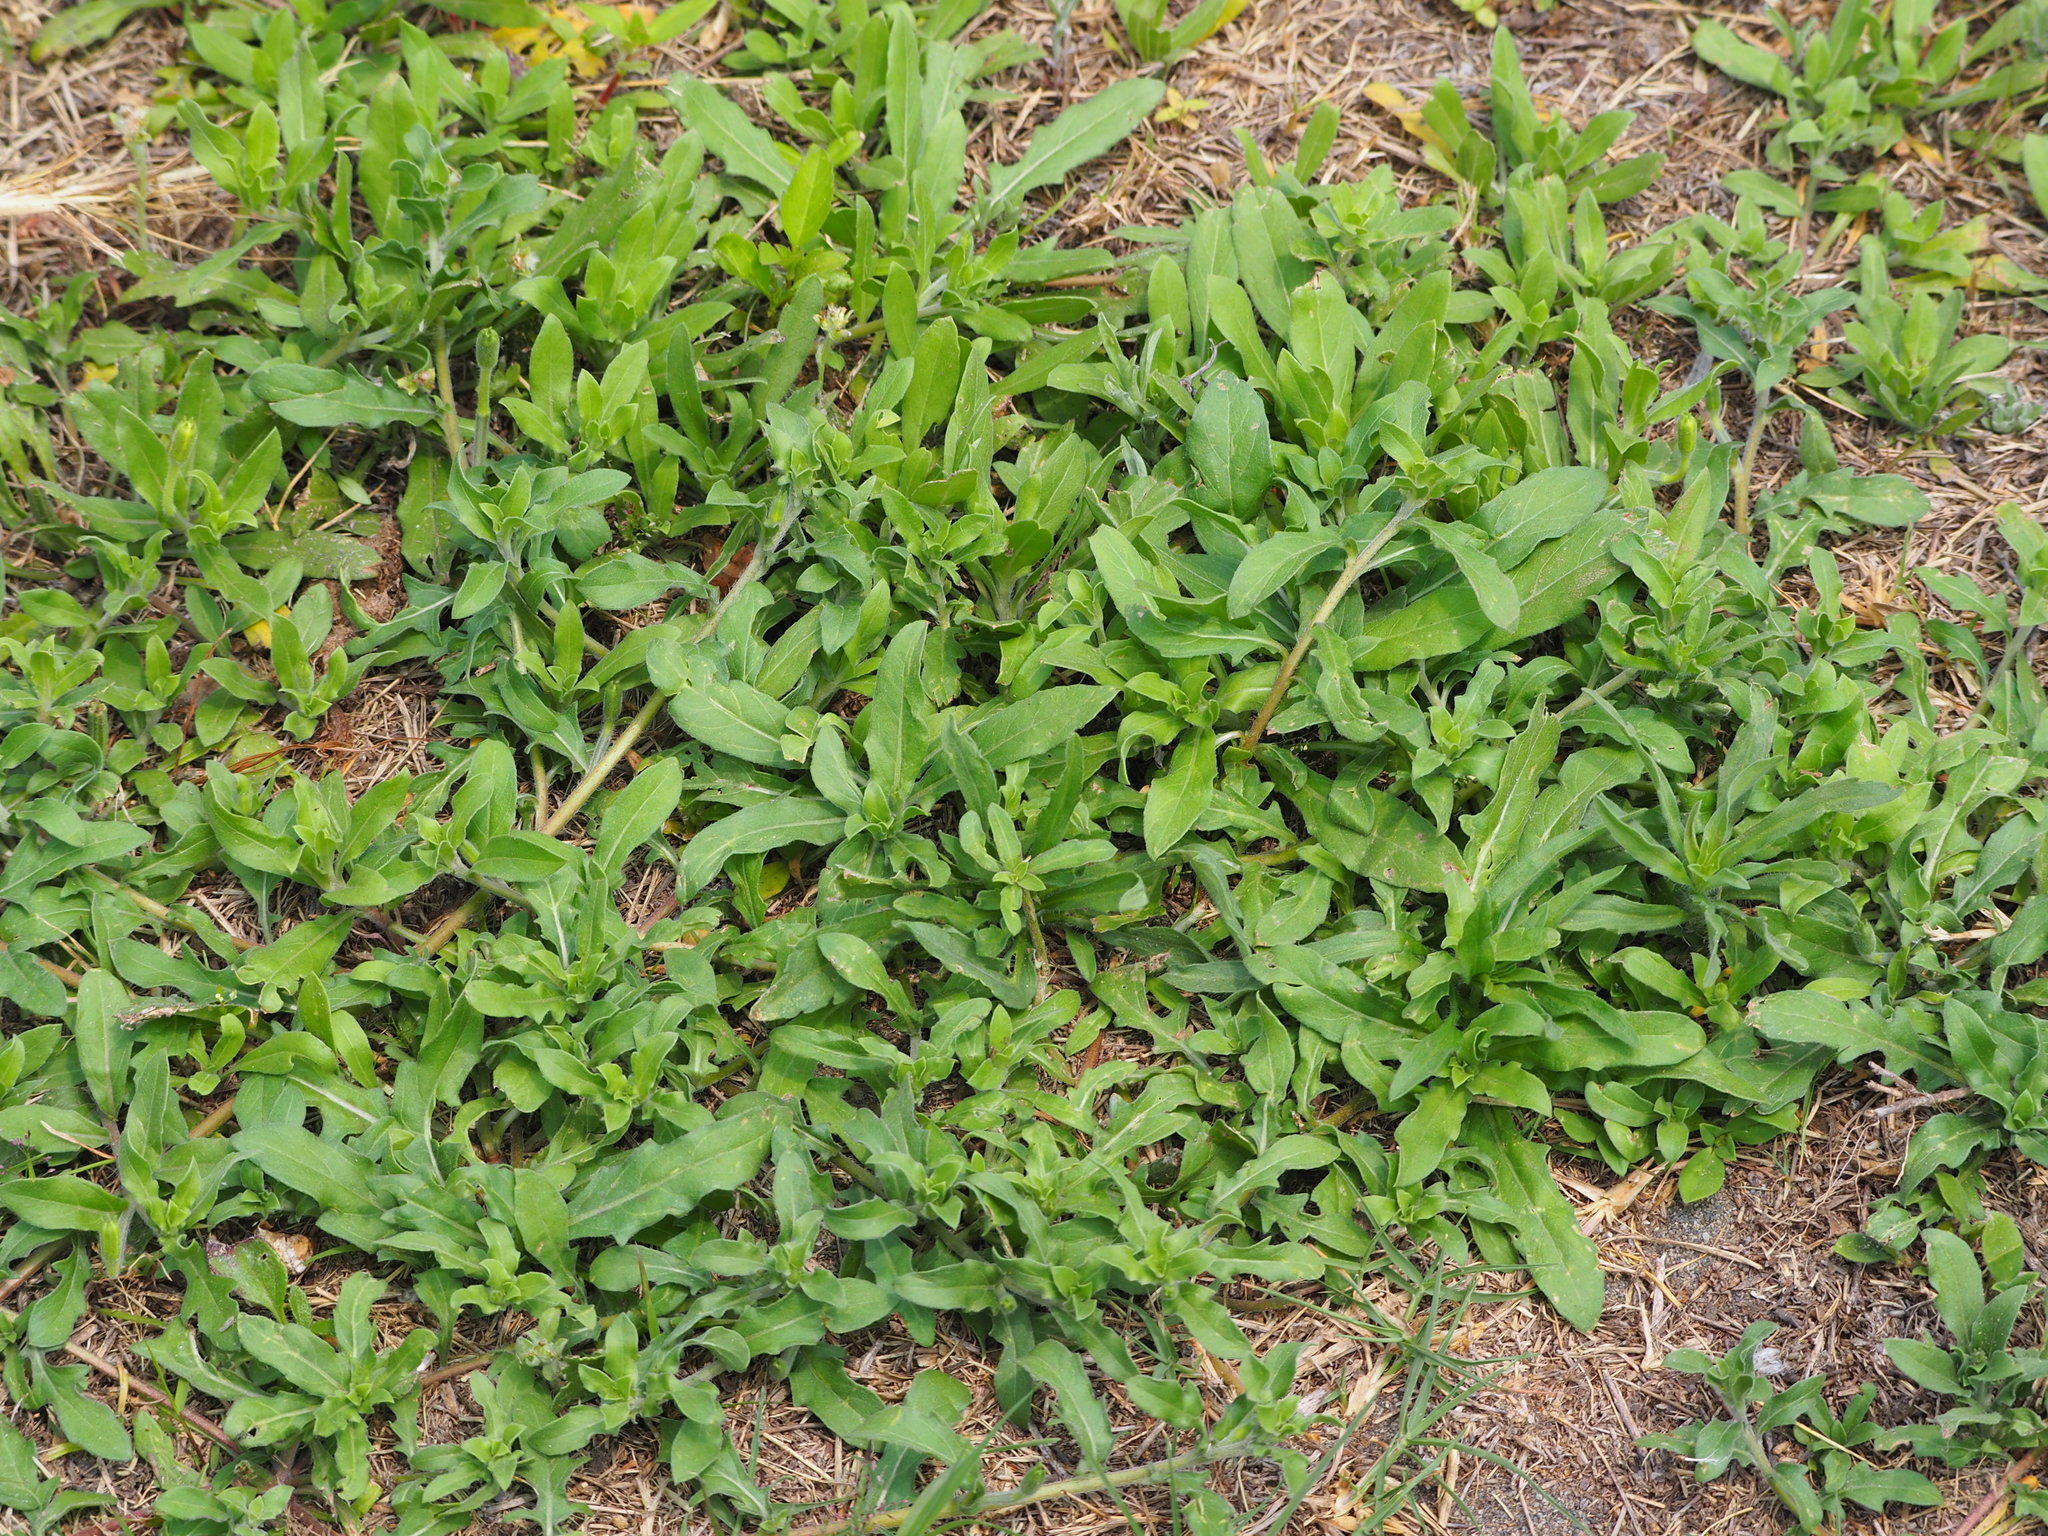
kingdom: Plantae
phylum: Tracheophyta
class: Magnoliopsida
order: Myrtales
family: Onagraceae
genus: Oenothera
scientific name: Oenothera laciniata
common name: Cut-leaved evening-primrose
